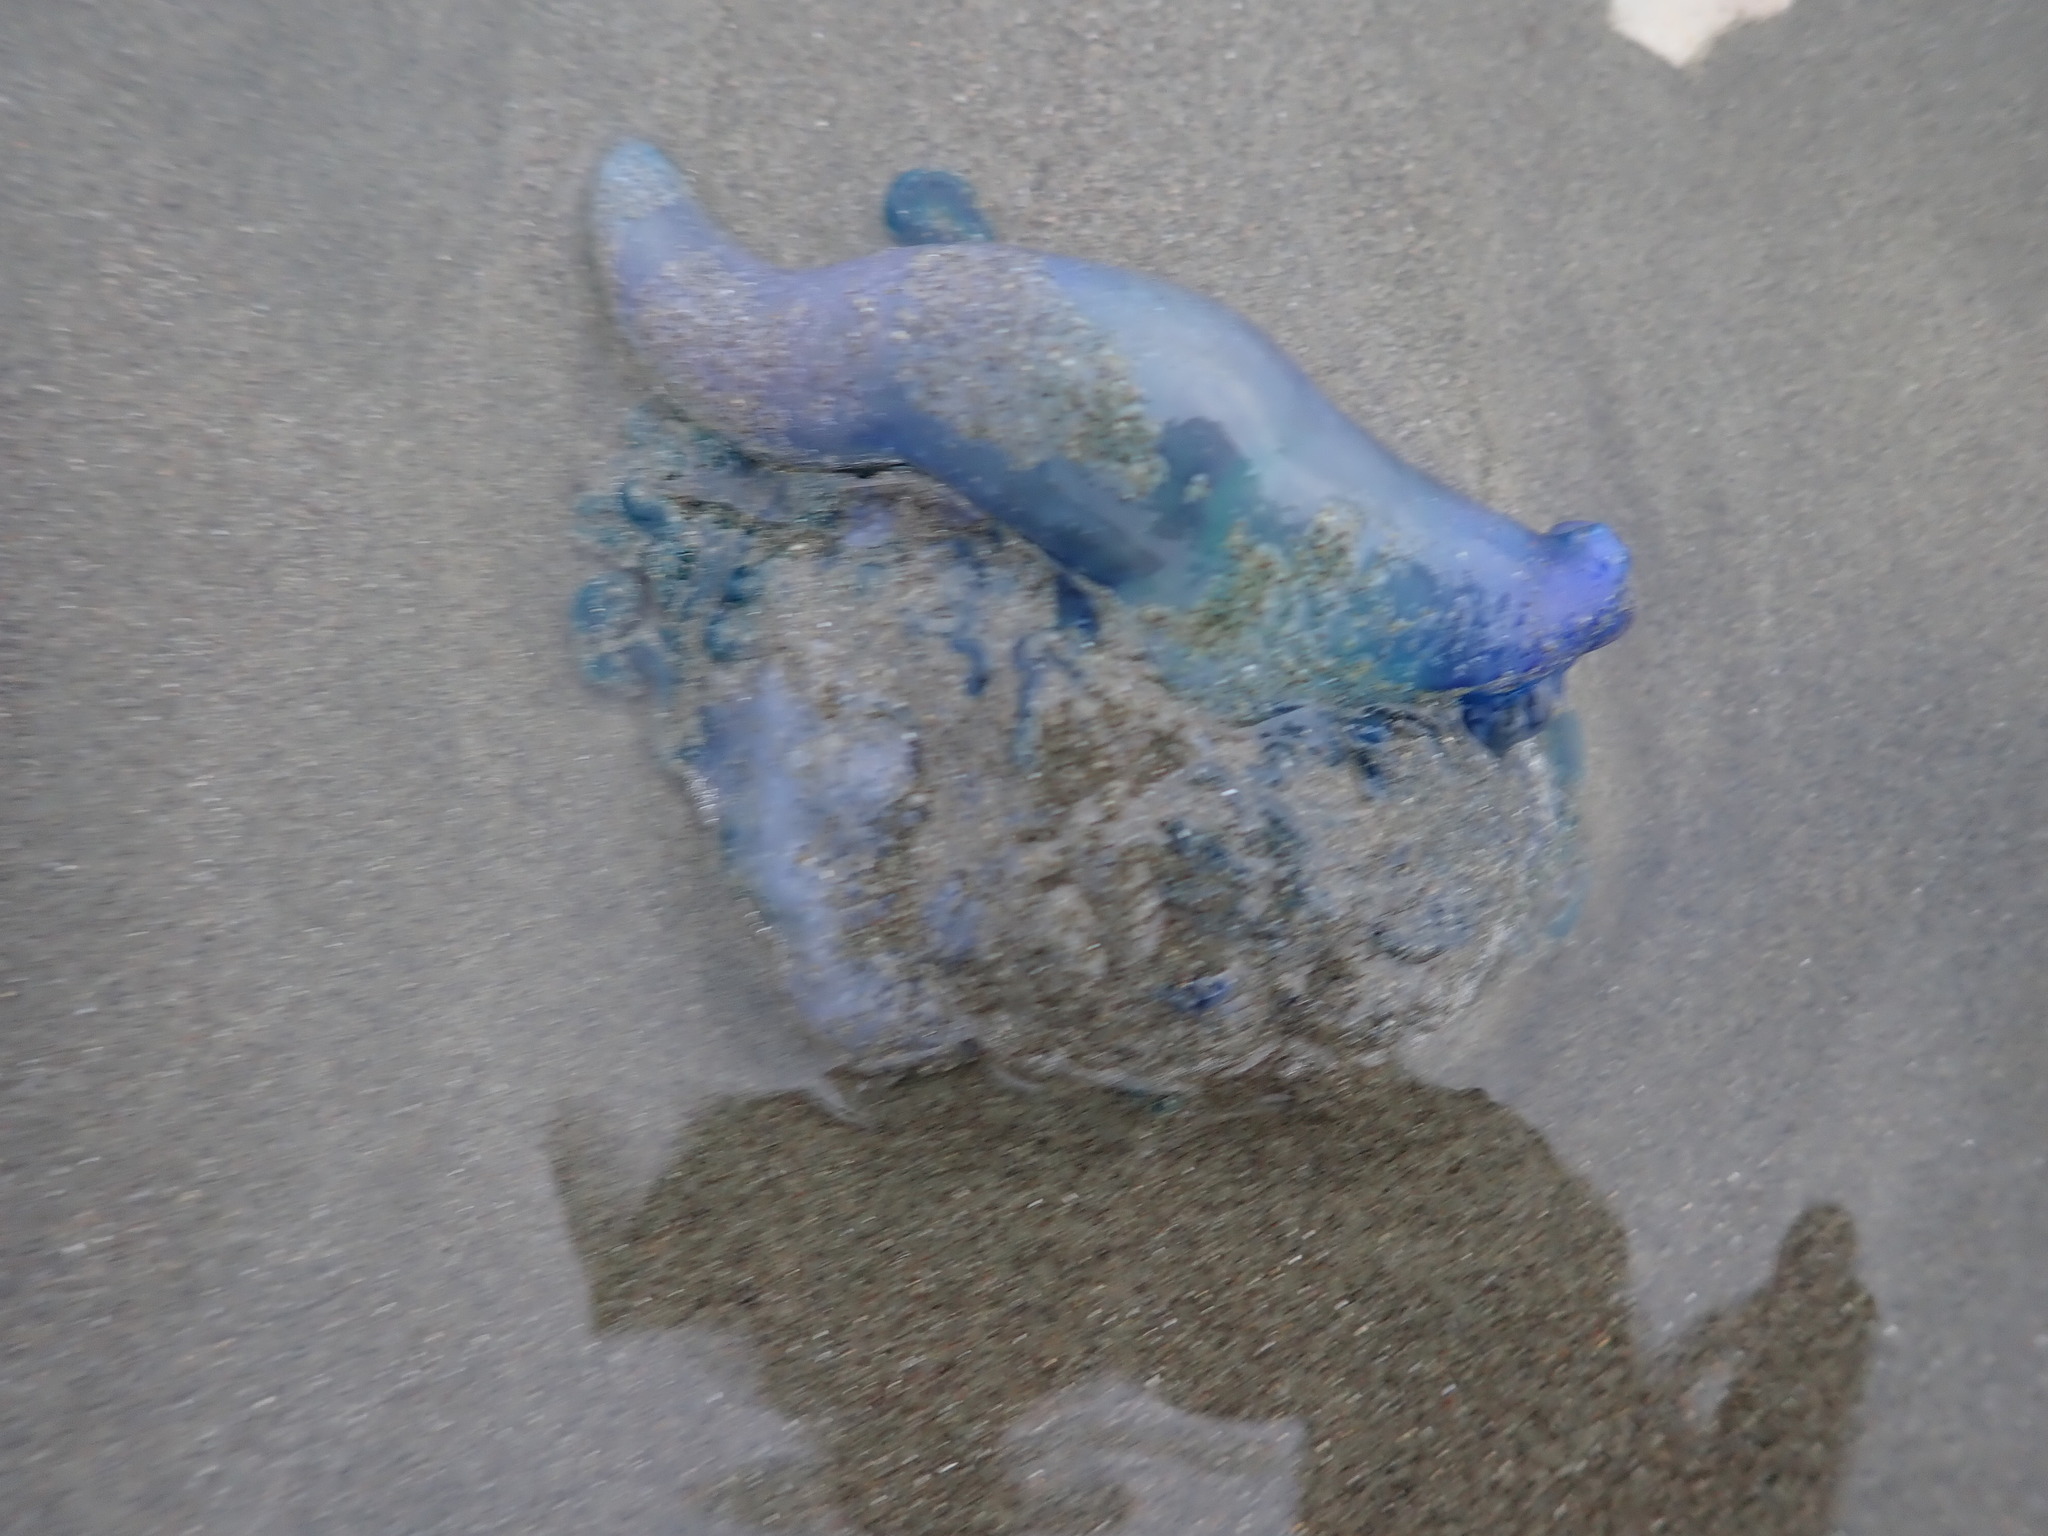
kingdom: Animalia
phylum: Cnidaria
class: Hydrozoa
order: Siphonophorae
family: Physaliidae
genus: Physalia
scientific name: Physalia physalis
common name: Portuguese man-of-war
